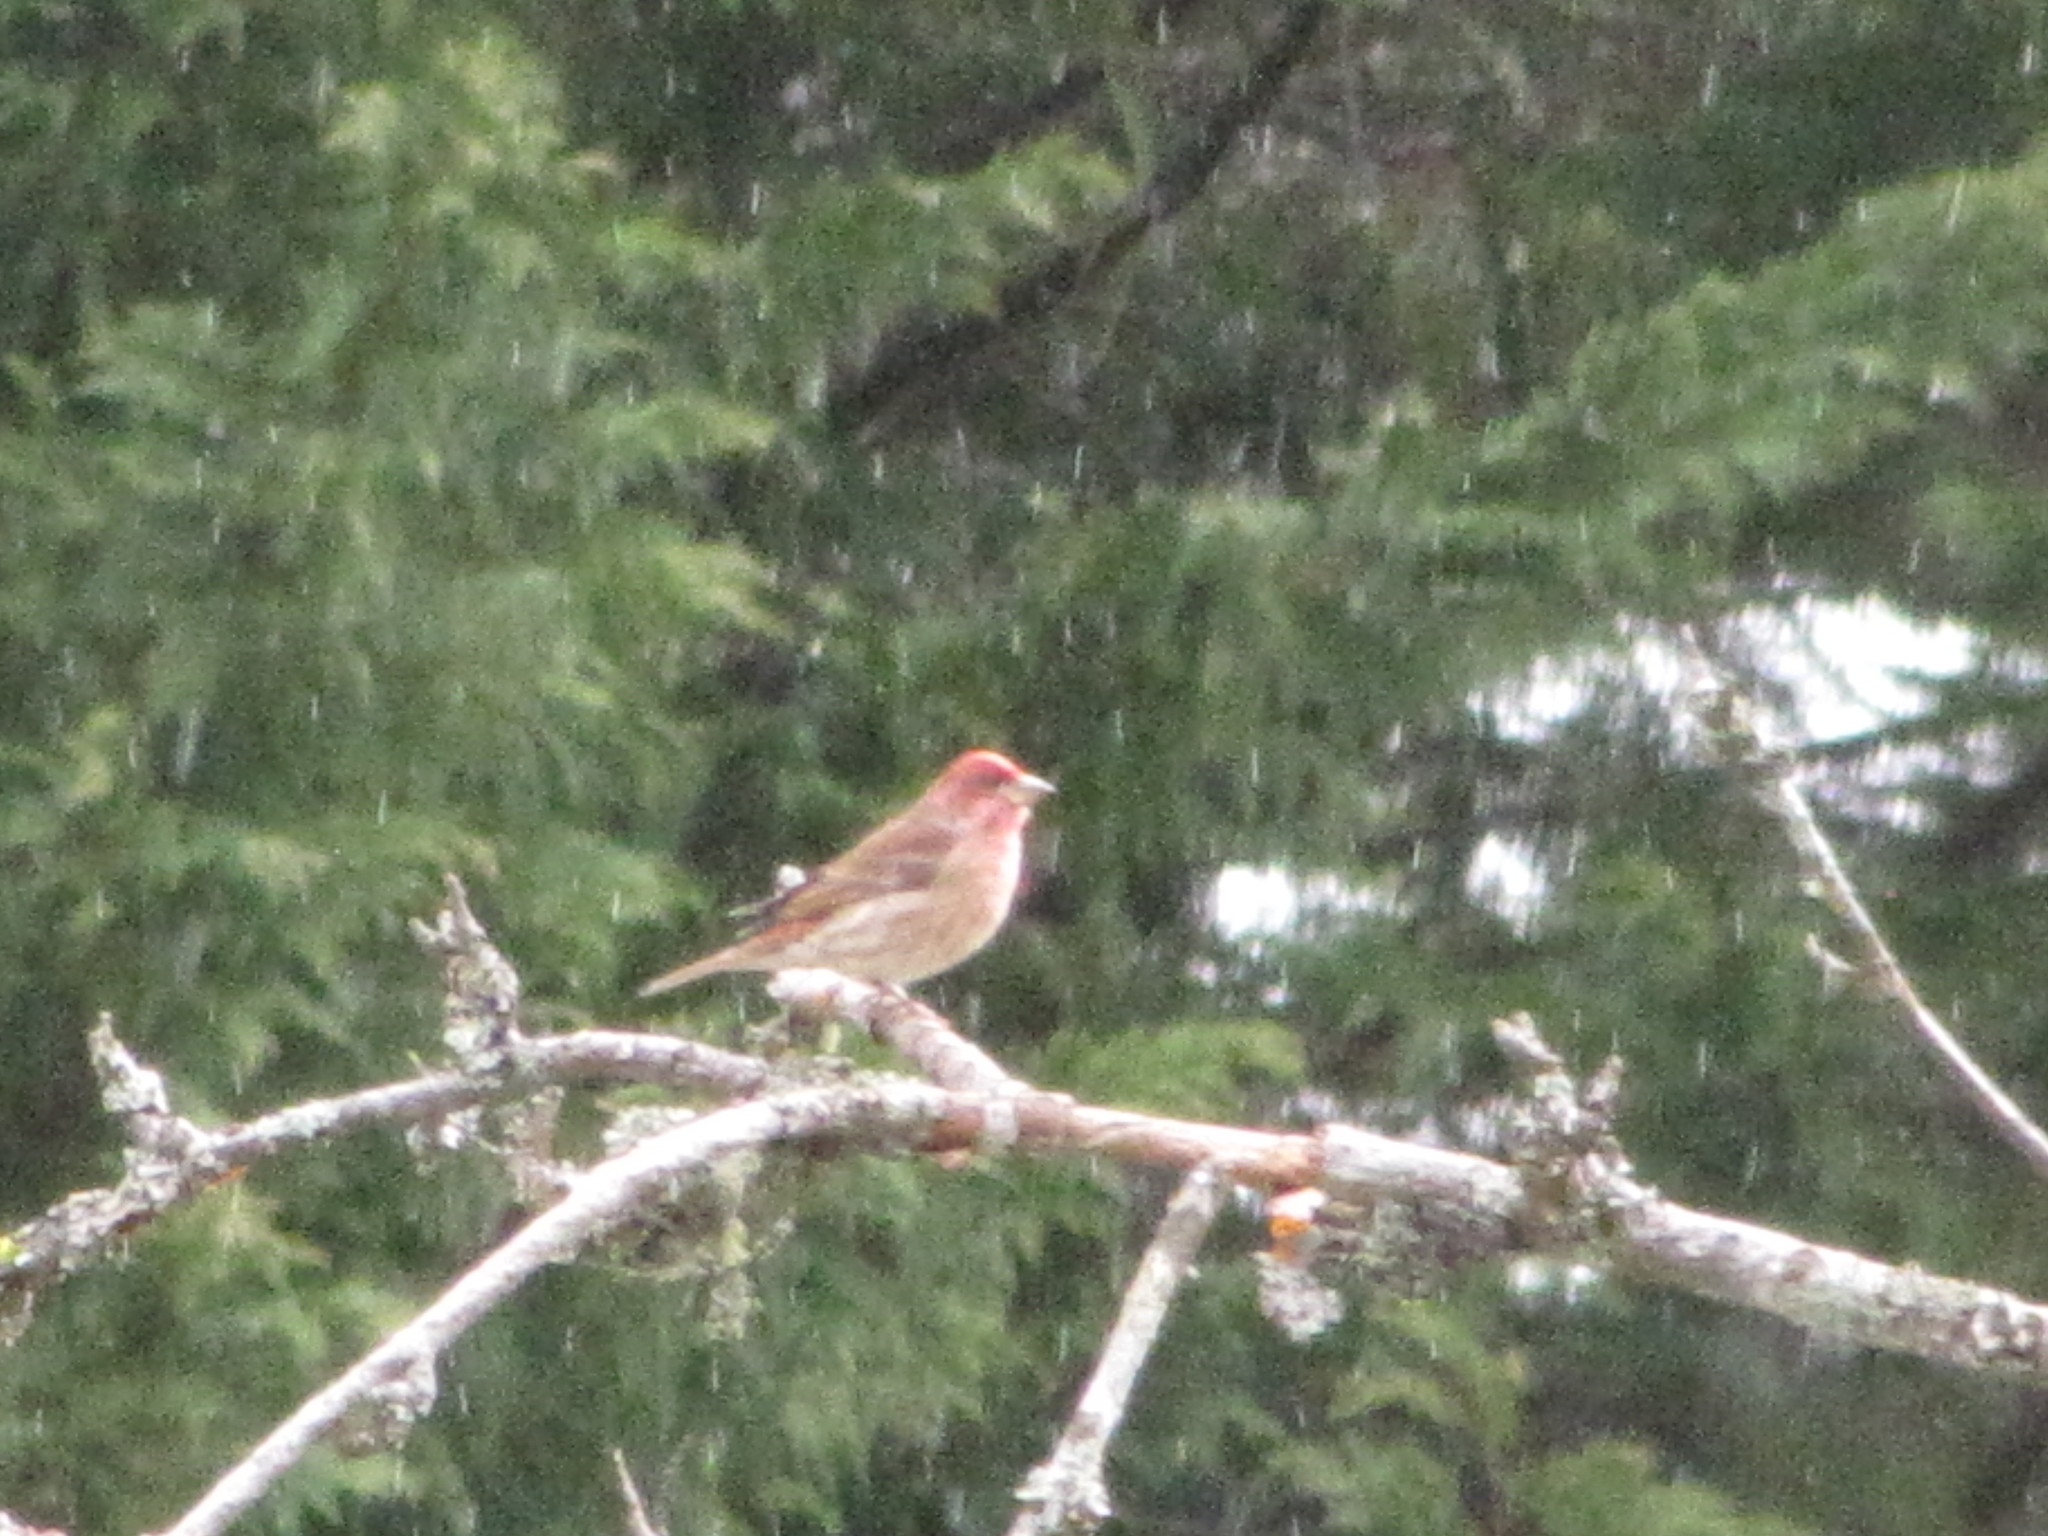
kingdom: Animalia
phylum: Chordata
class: Aves
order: Passeriformes
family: Fringillidae
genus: Haemorhous
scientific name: Haemorhous purpureus
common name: Purple finch
